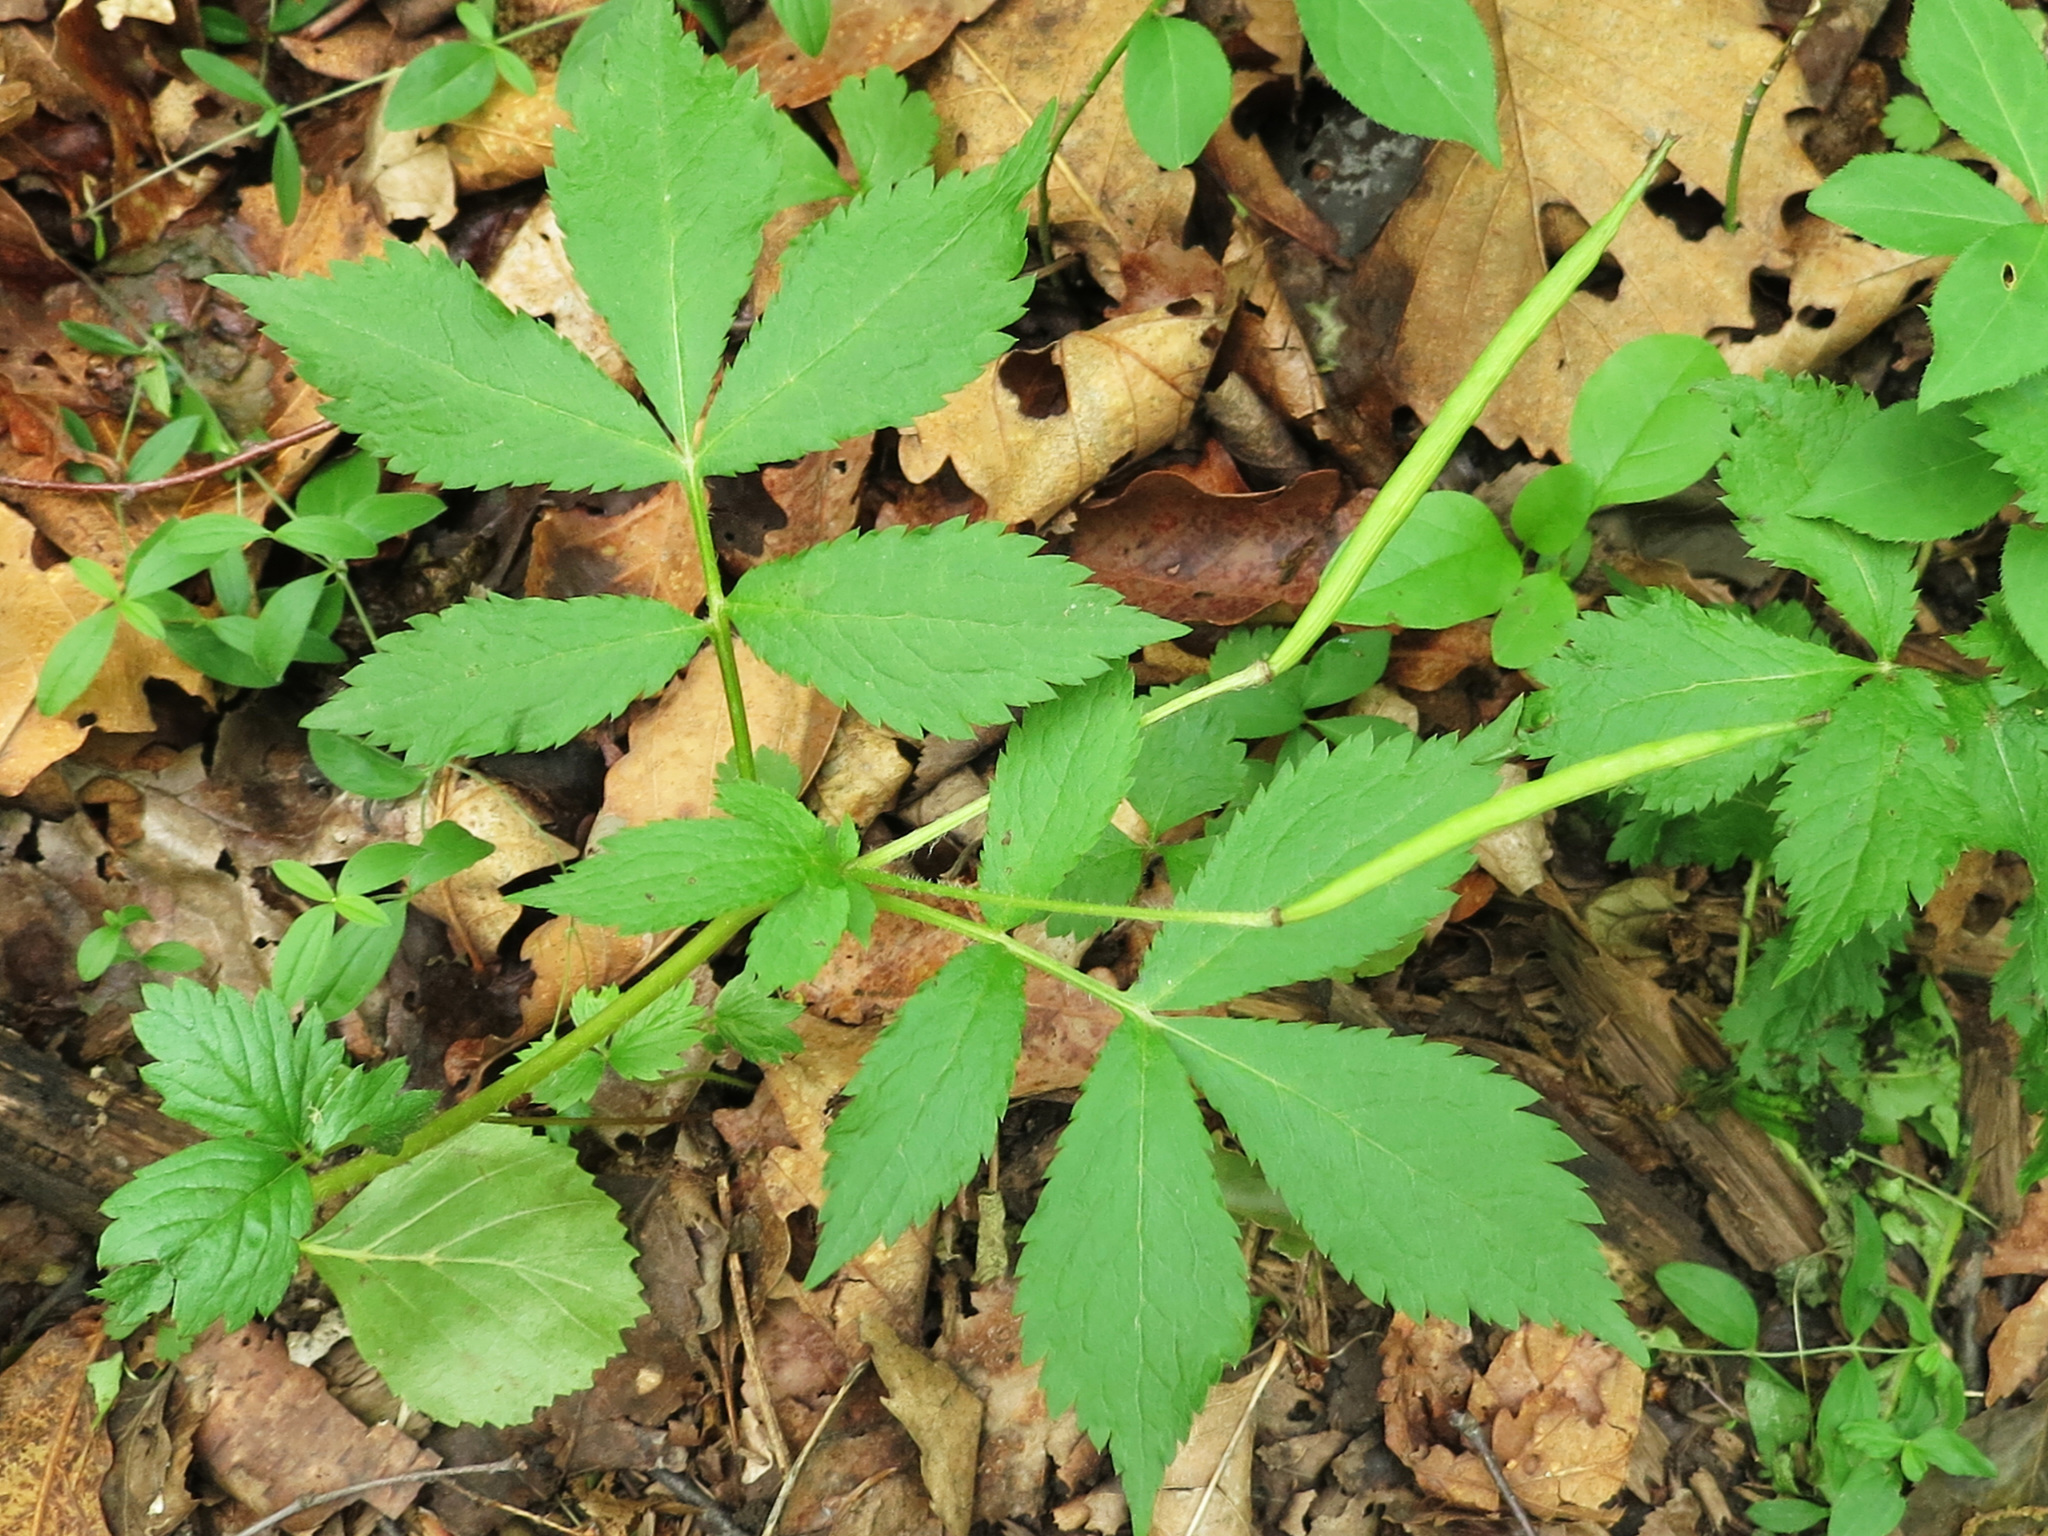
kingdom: Plantae
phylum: Tracheophyta
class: Magnoliopsida
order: Ranunculales
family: Papaveraceae
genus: Hylomecon
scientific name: Hylomecon vernalis
